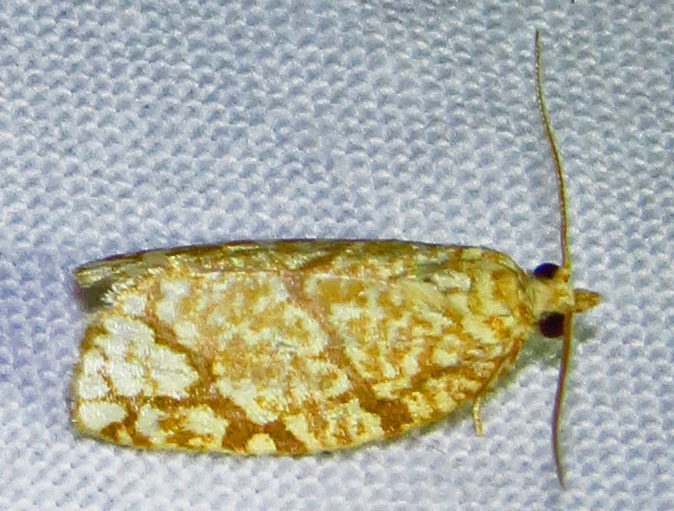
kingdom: Animalia
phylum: Arthropoda
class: Insecta
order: Lepidoptera
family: Tortricidae
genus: Argyrotaenia
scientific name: Argyrotaenia quercifoliana
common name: Yellow-winged oak leafroller moth
